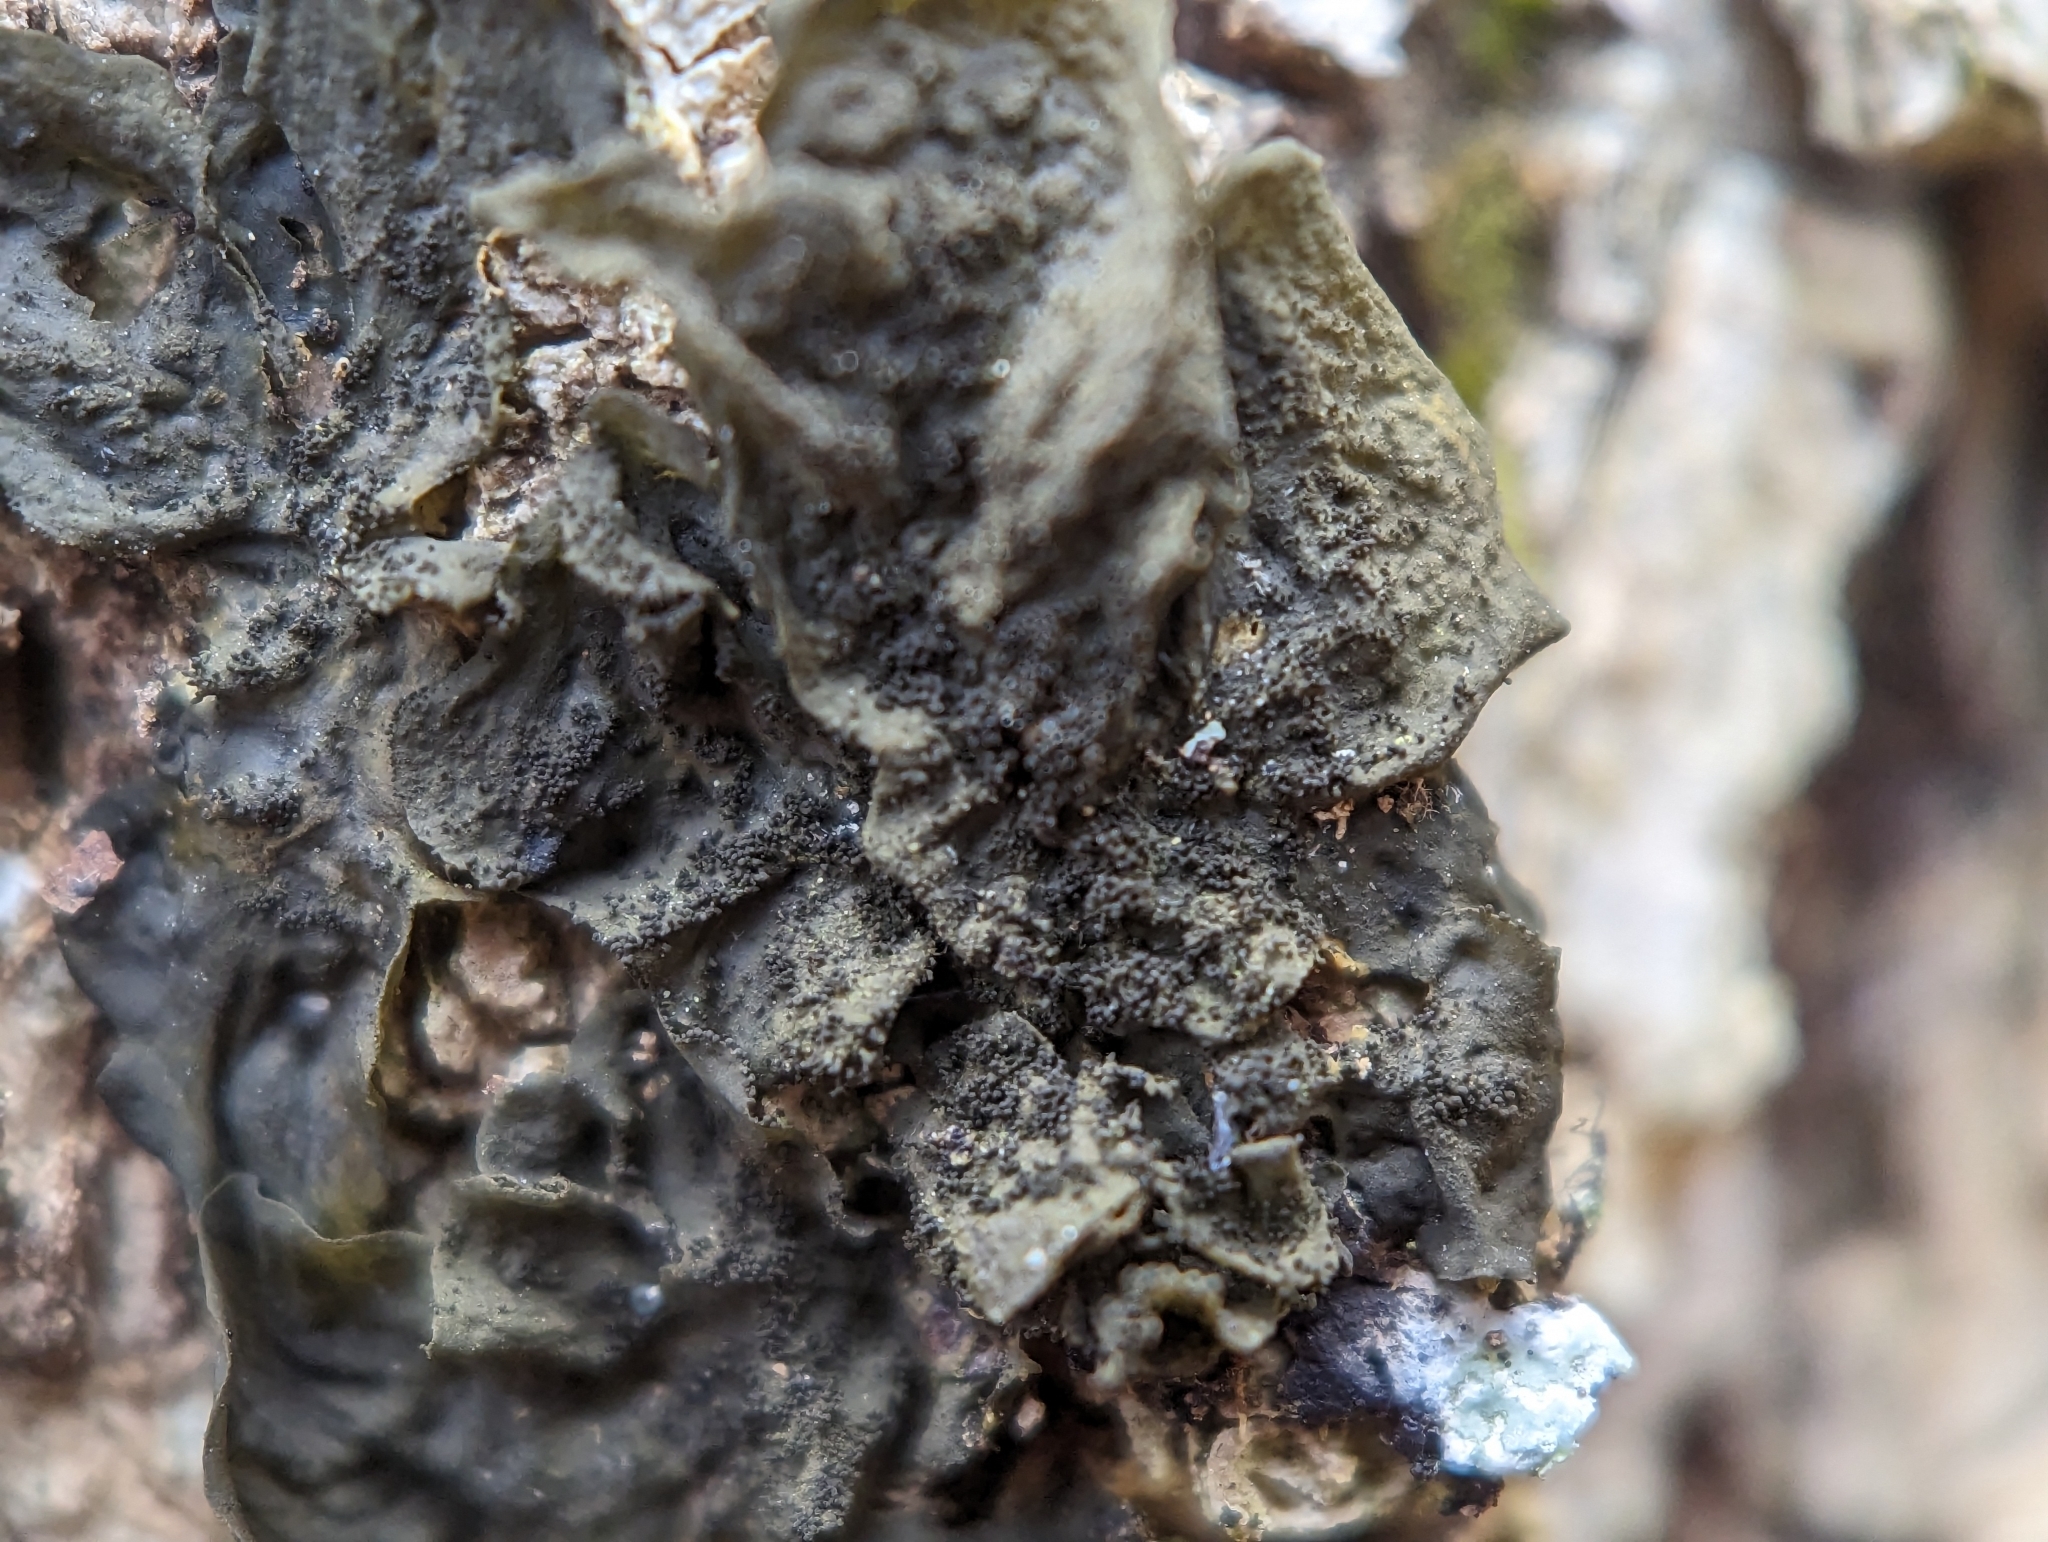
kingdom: Fungi
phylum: Ascomycota
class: Lecanoromycetes
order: Peltigerales
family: Collemataceae
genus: Collema
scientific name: Collema subflaccidum
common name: Tree jelly
